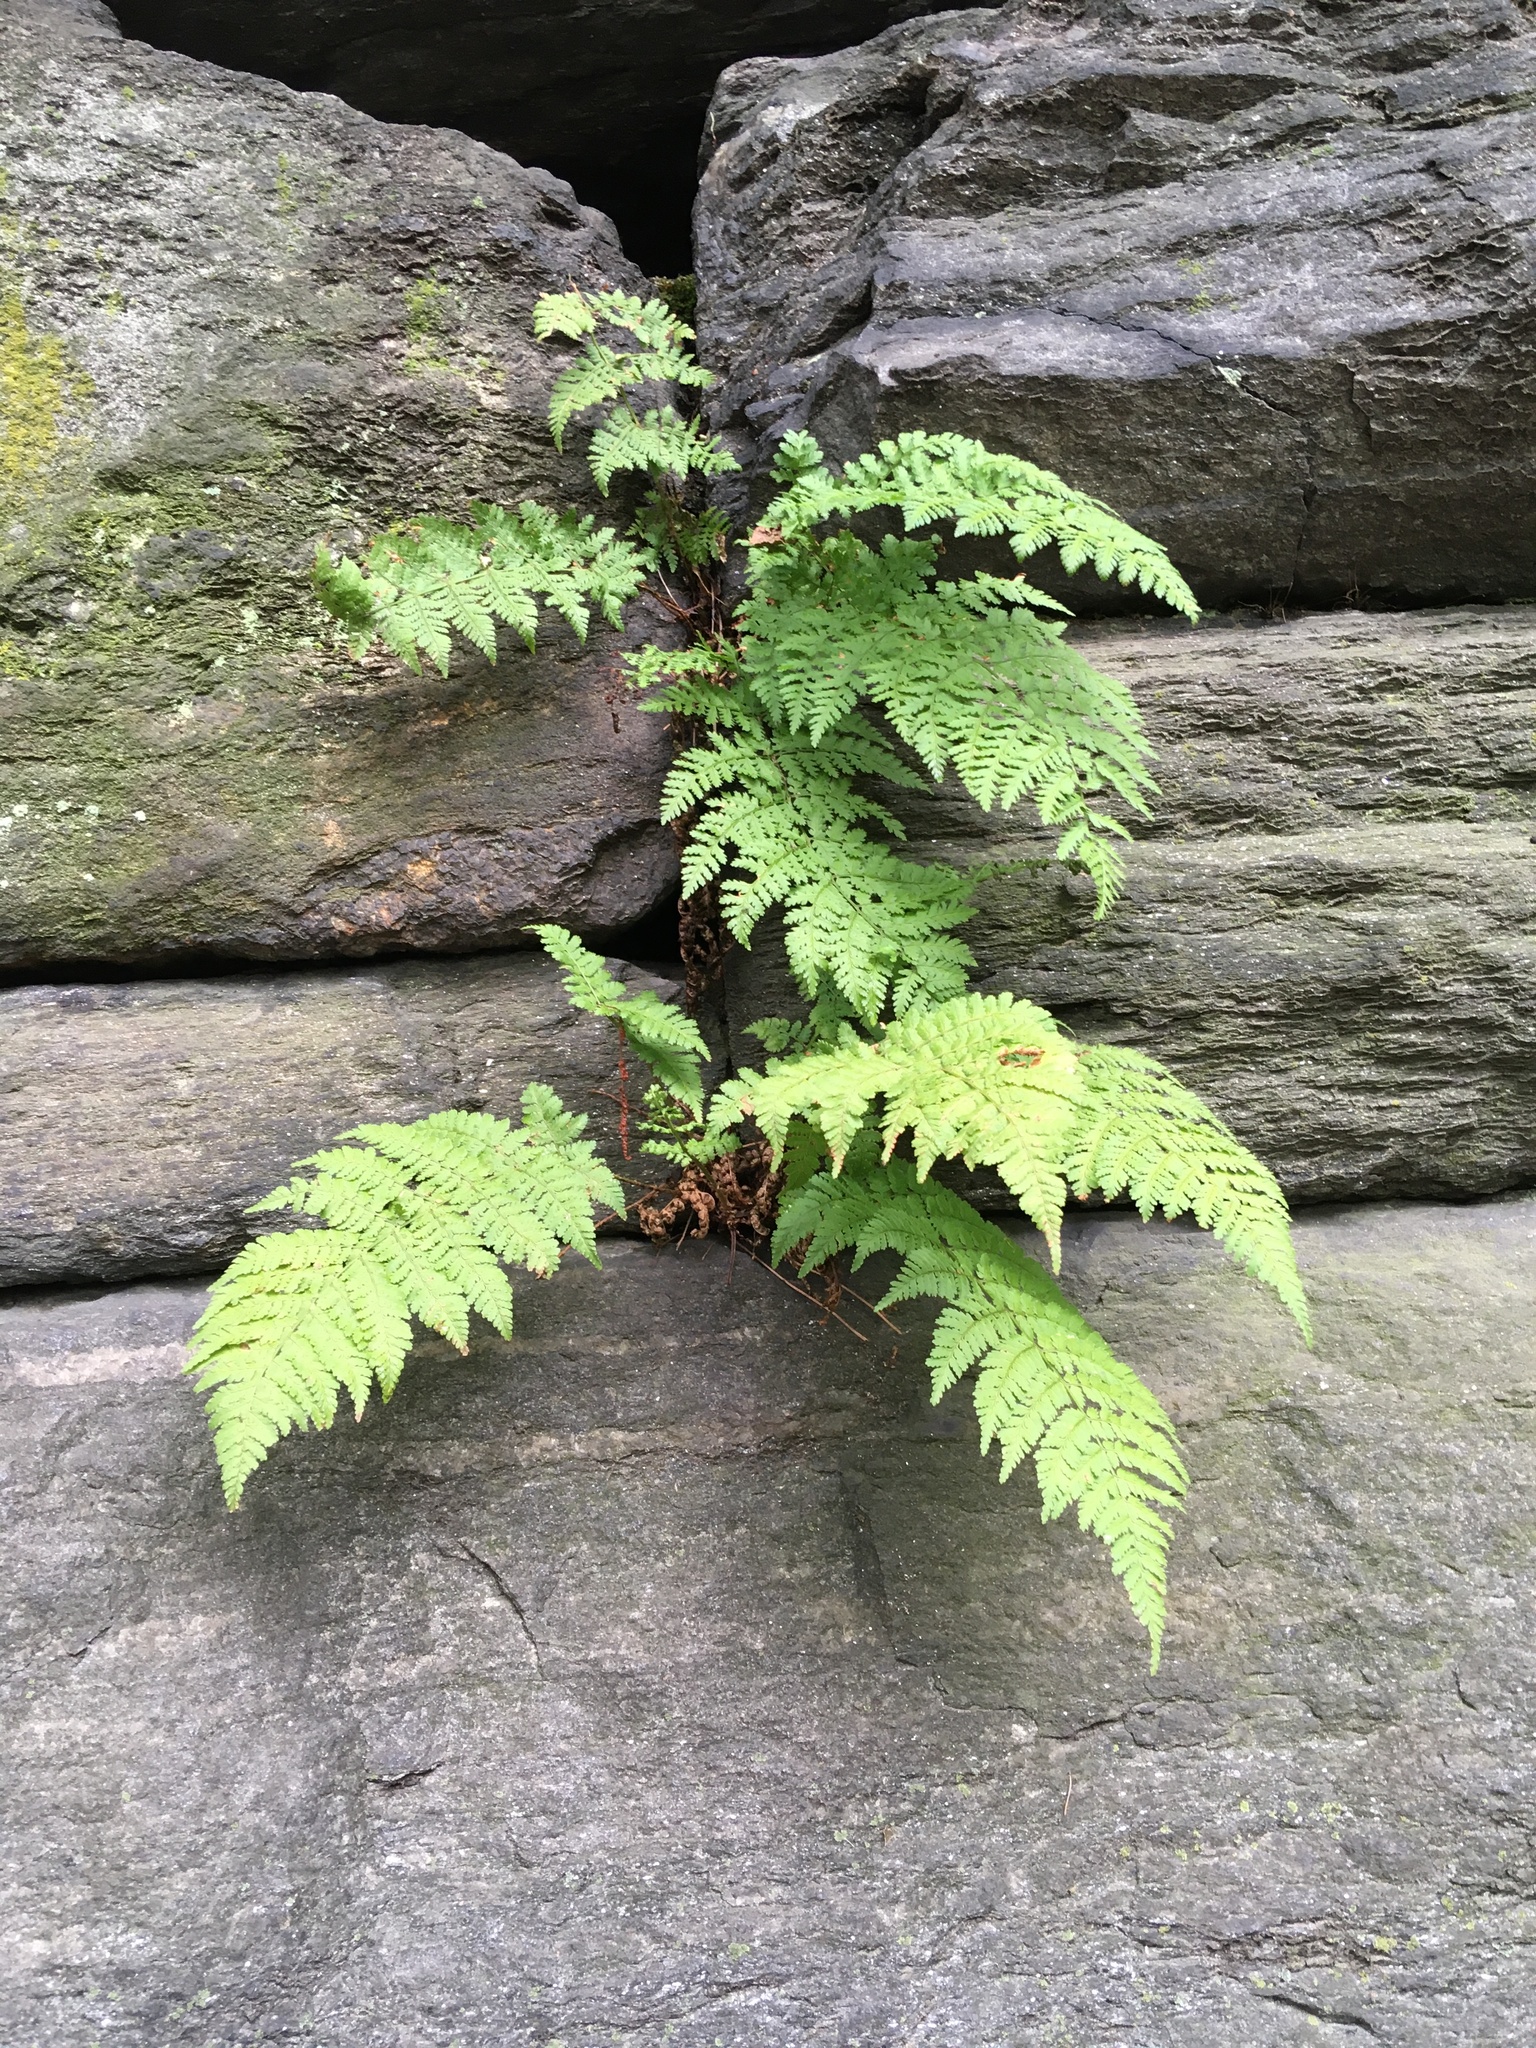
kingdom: Plantae
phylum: Tracheophyta
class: Polypodiopsida
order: Polypodiales
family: Dryopteridaceae
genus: Dryopteris
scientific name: Dryopteris intermedia
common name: Evergreen wood fern
